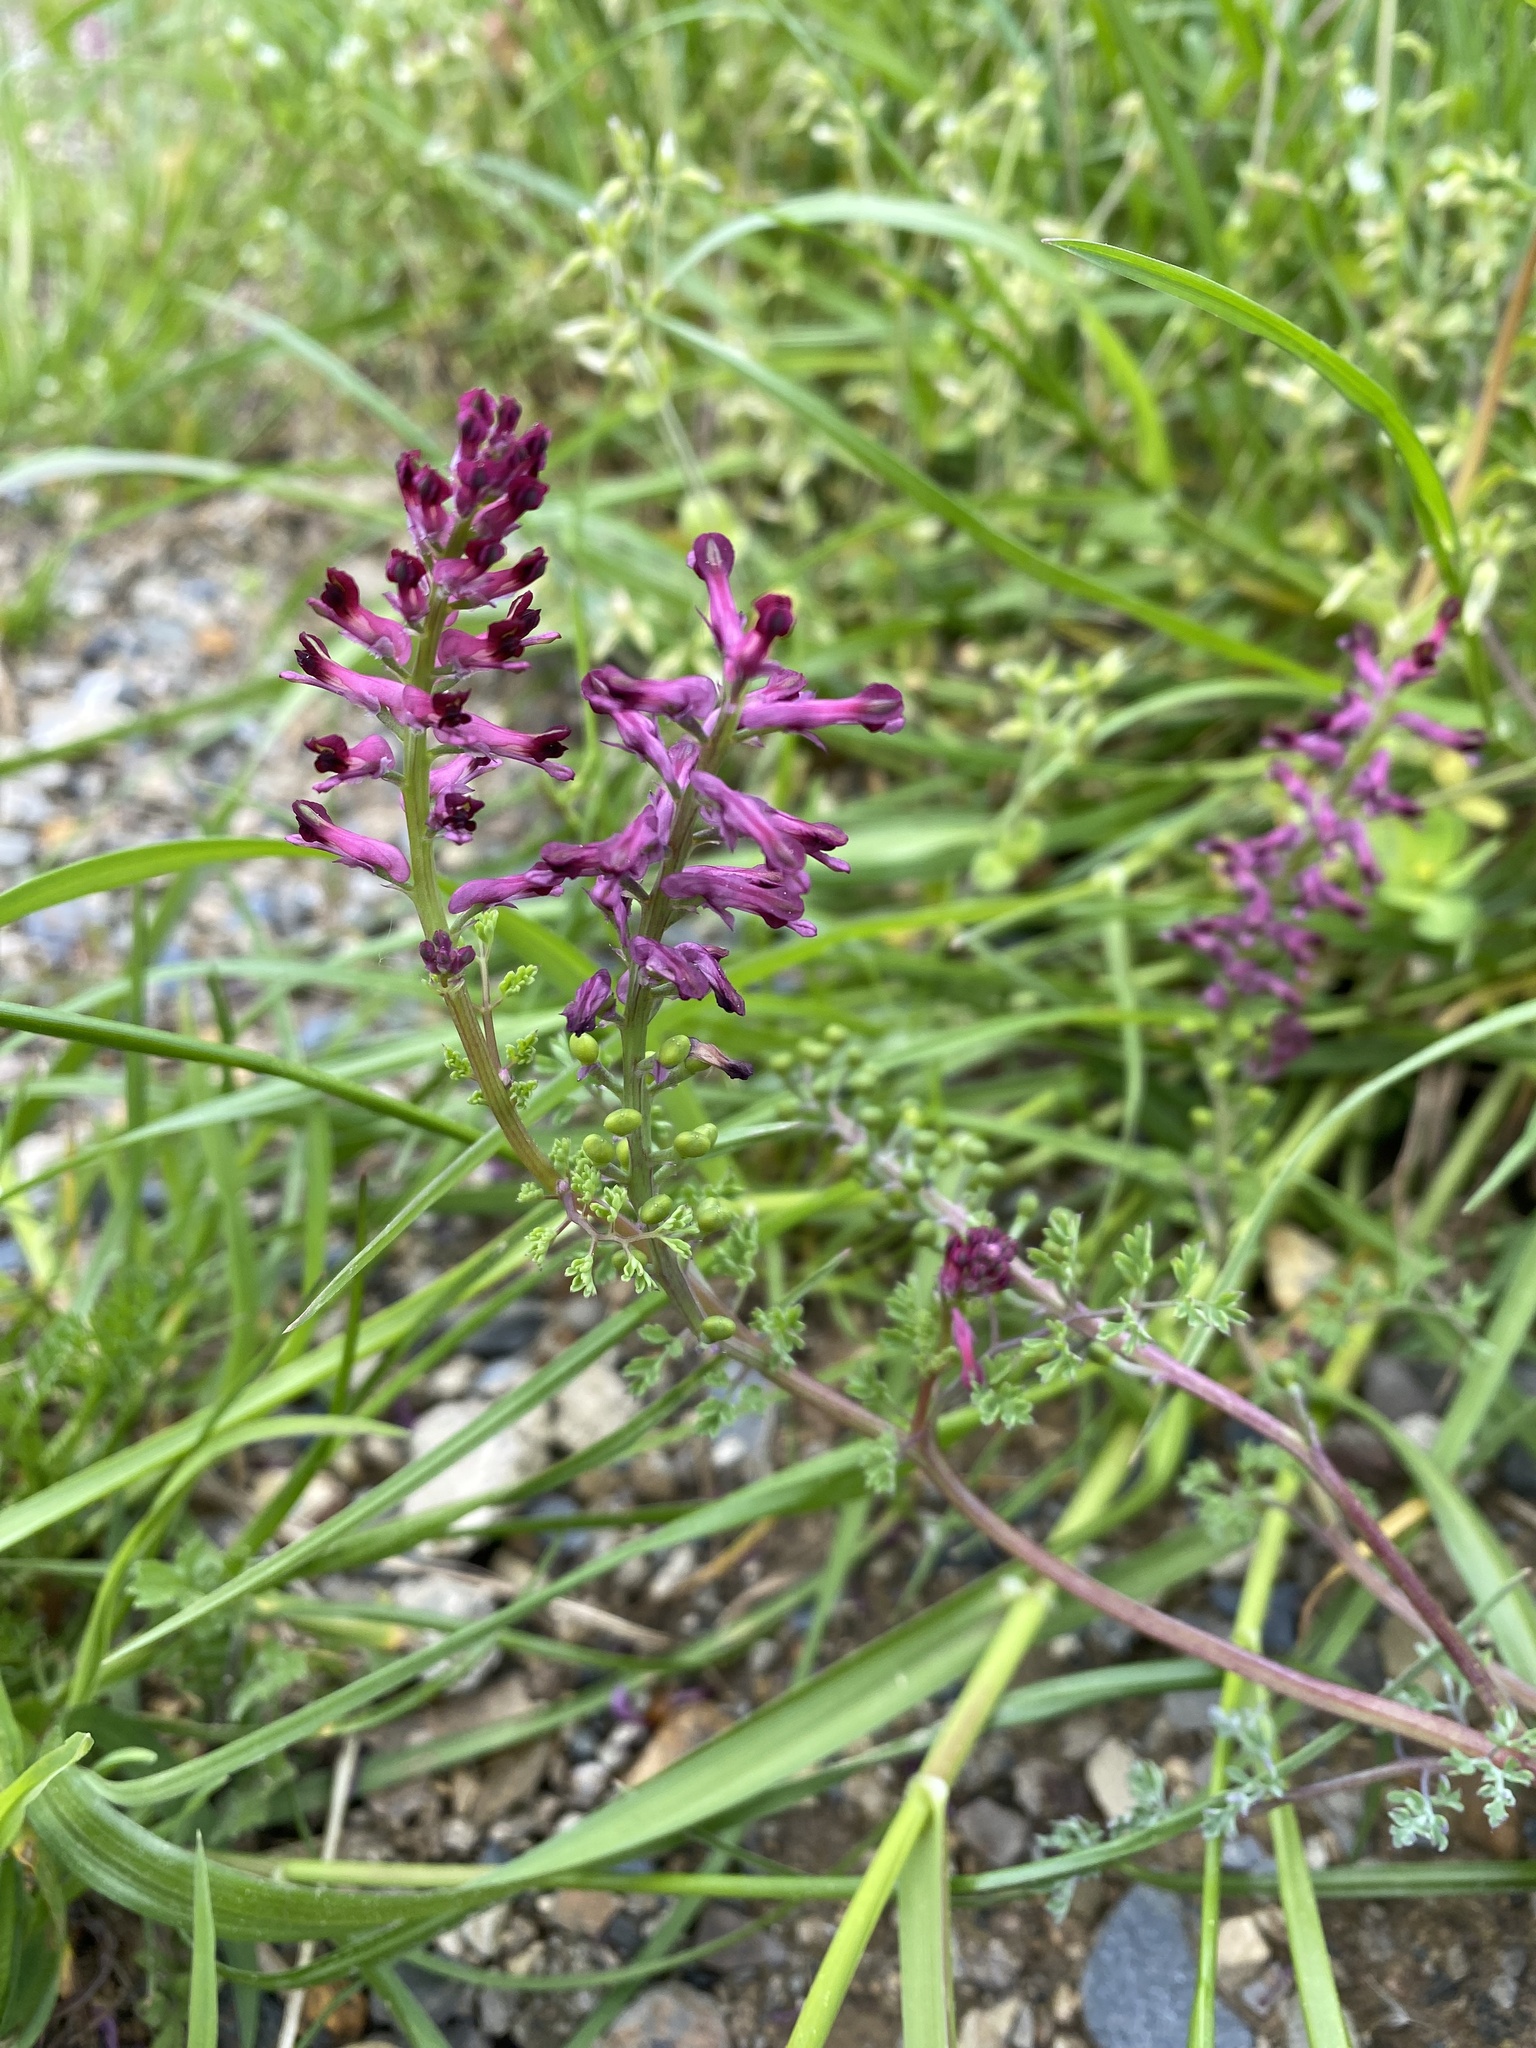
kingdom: Plantae
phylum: Tracheophyta
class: Magnoliopsida
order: Ranunculales
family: Papaveraceae
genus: Fumaria
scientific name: Fumaria officinalis
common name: Common fumitory
